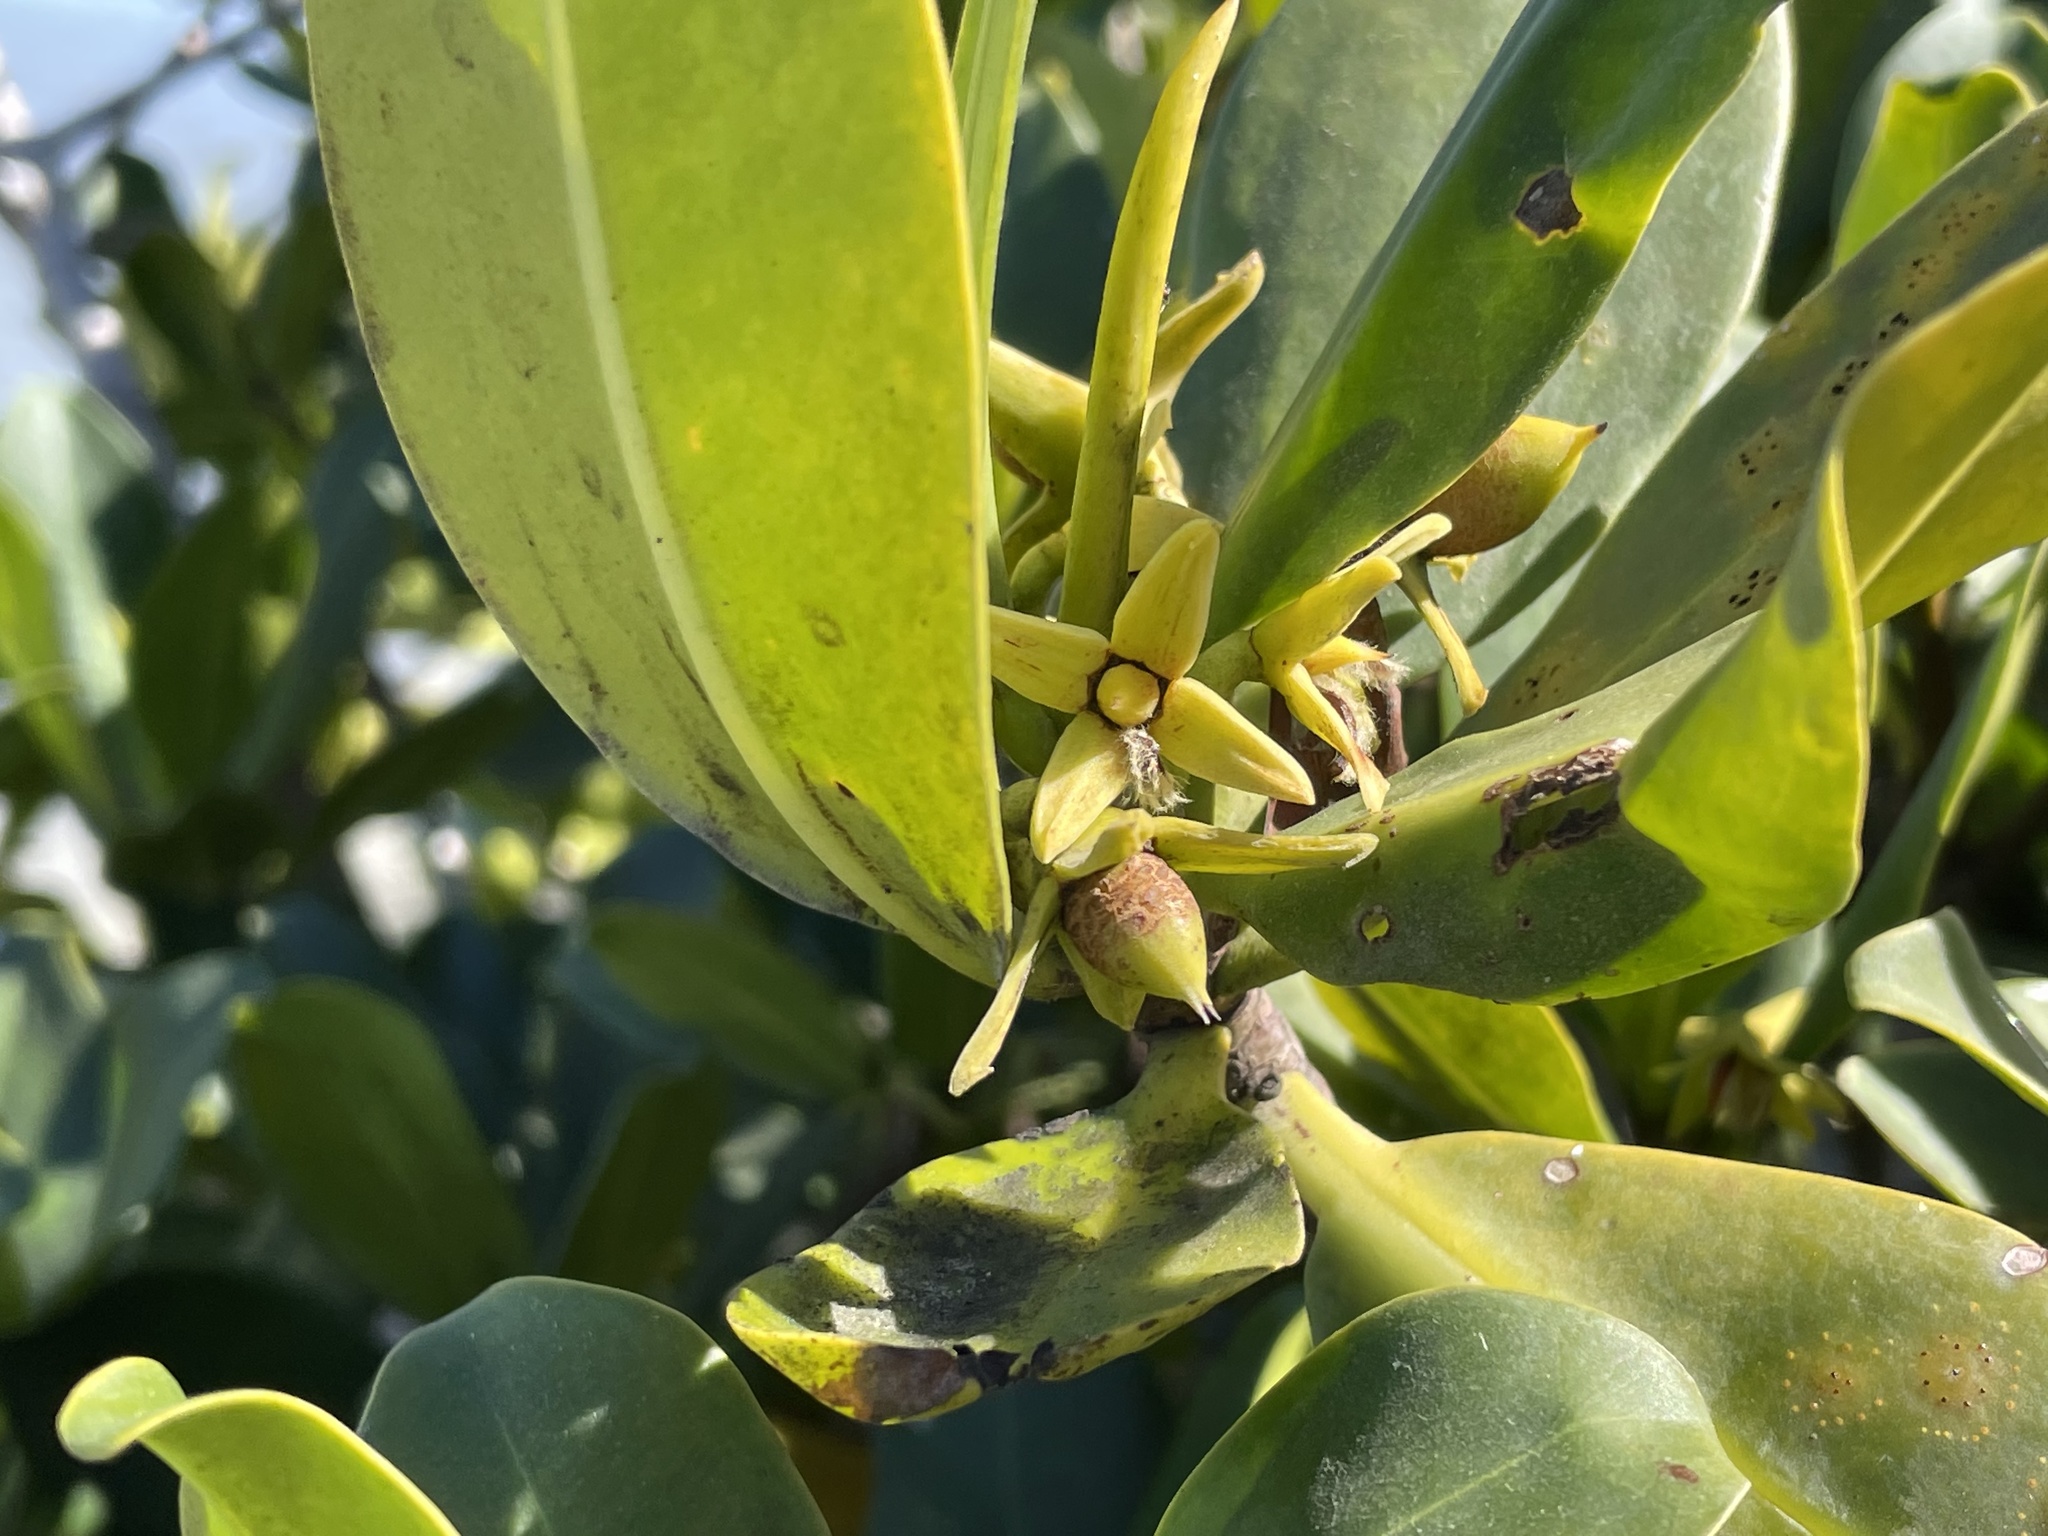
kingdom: Plantae
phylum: Tracheophyta
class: Magnoliopsida
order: Malpighiales
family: Rhizophoraceae
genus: Rhizophora
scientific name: Rhizophora mangle
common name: Red mangrove
